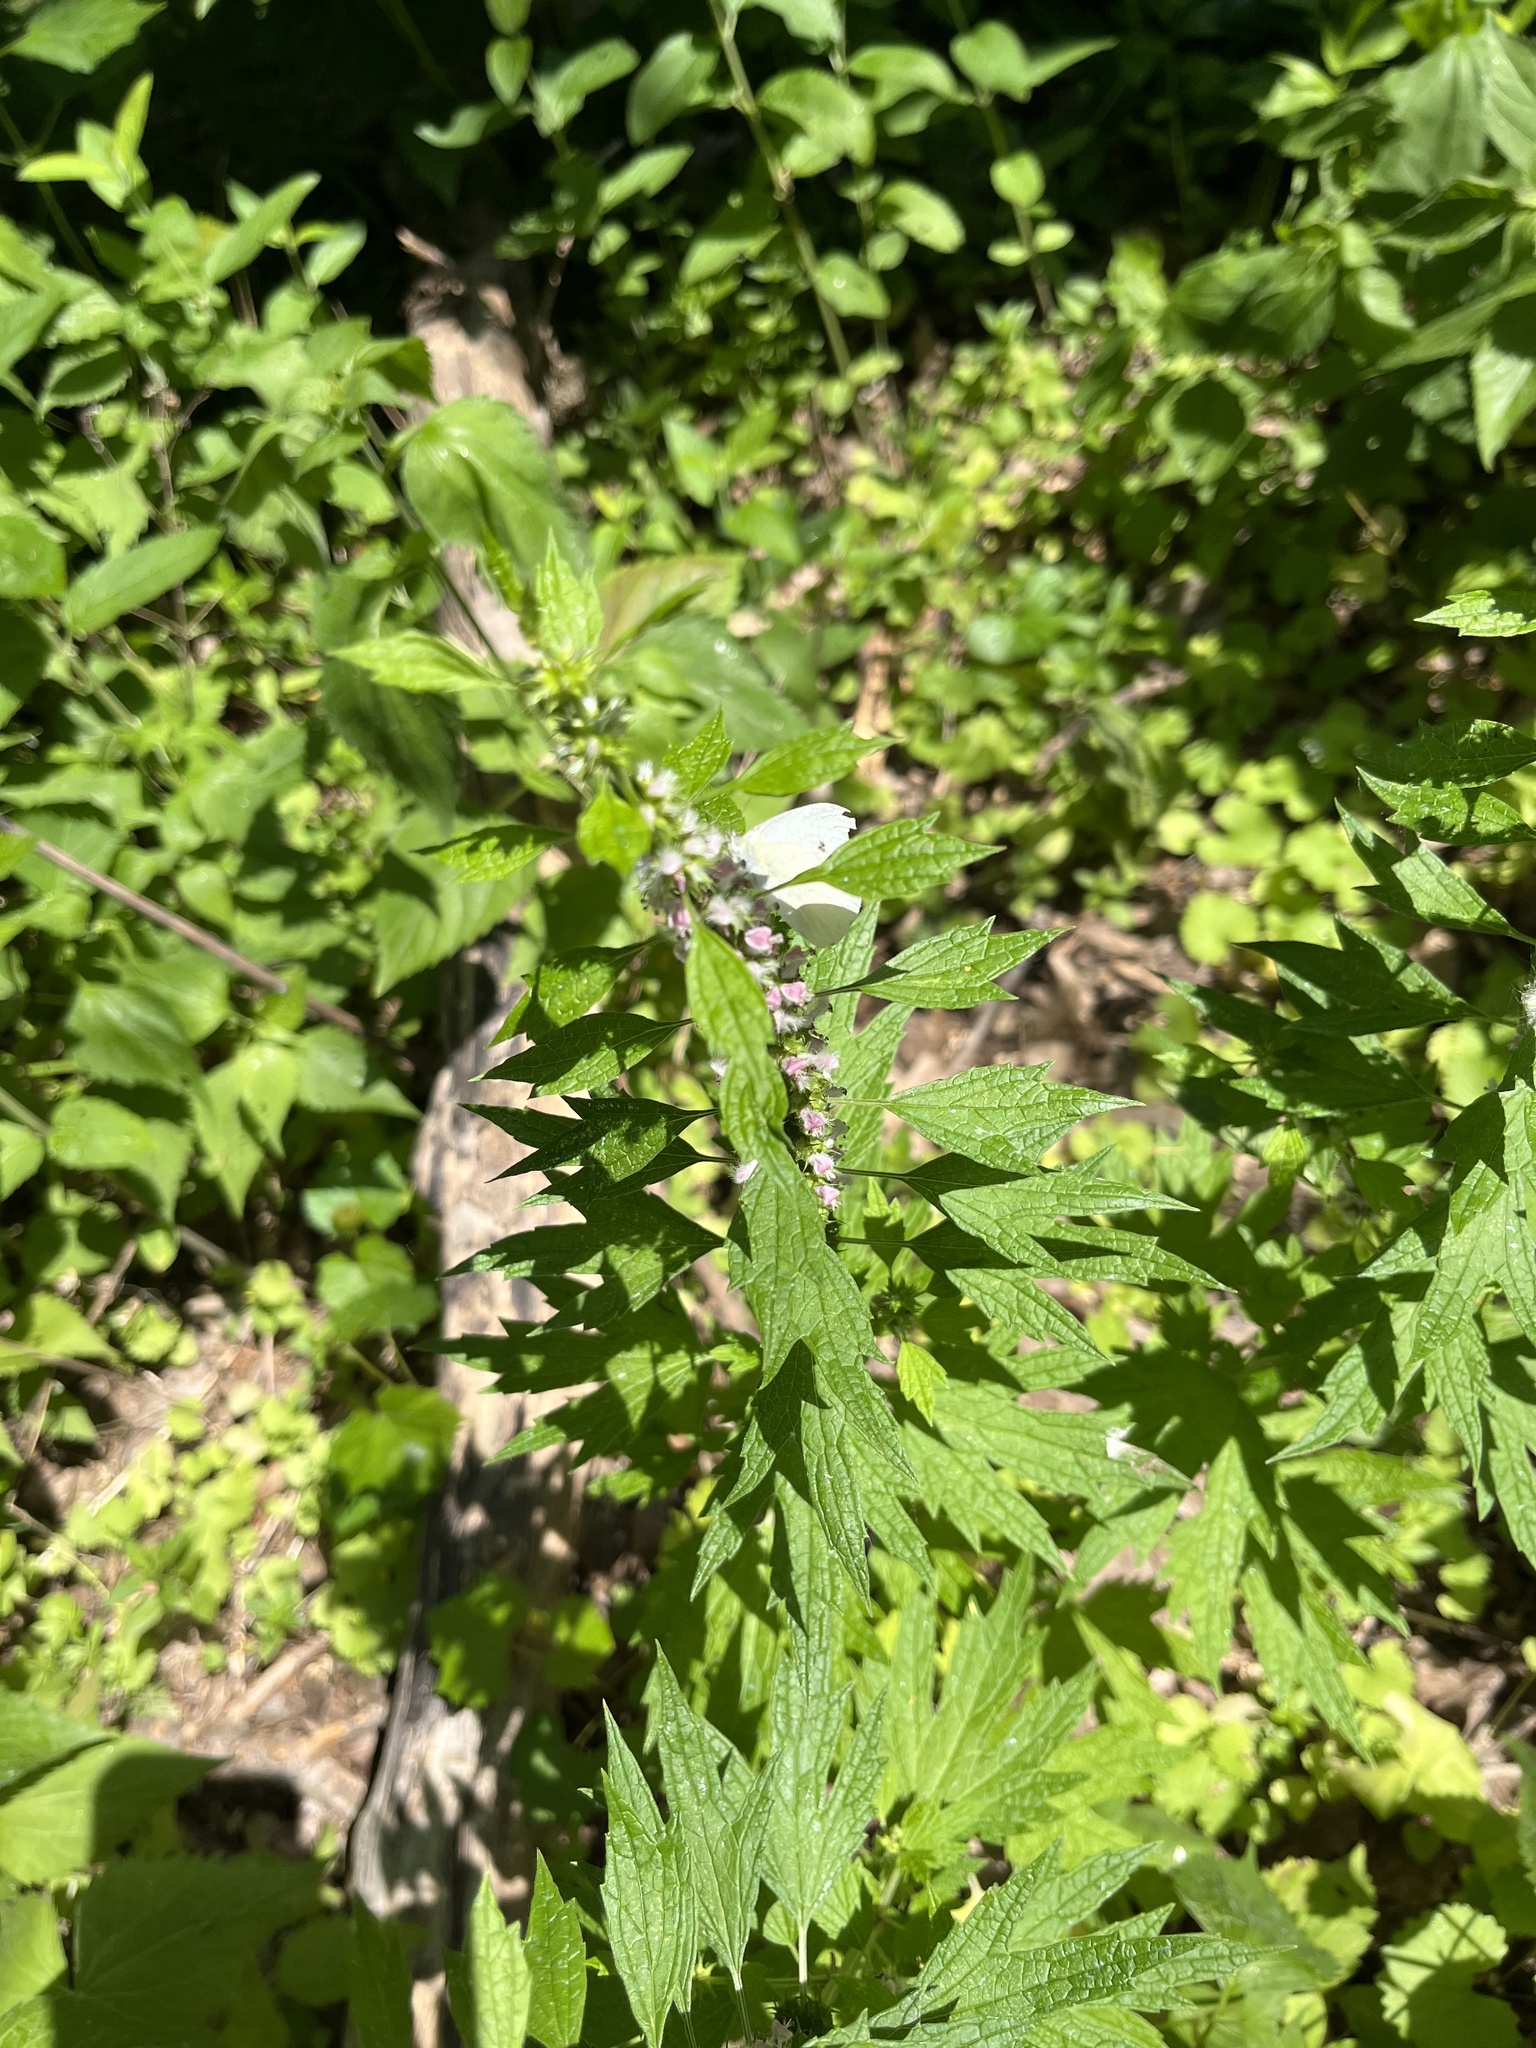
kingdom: Plantae
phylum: Tracheophyta
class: Magnoliopsida
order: Lamiales
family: Lamiaceae
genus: Leonurus
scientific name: Leonurus cardiaca
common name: Motherwort
